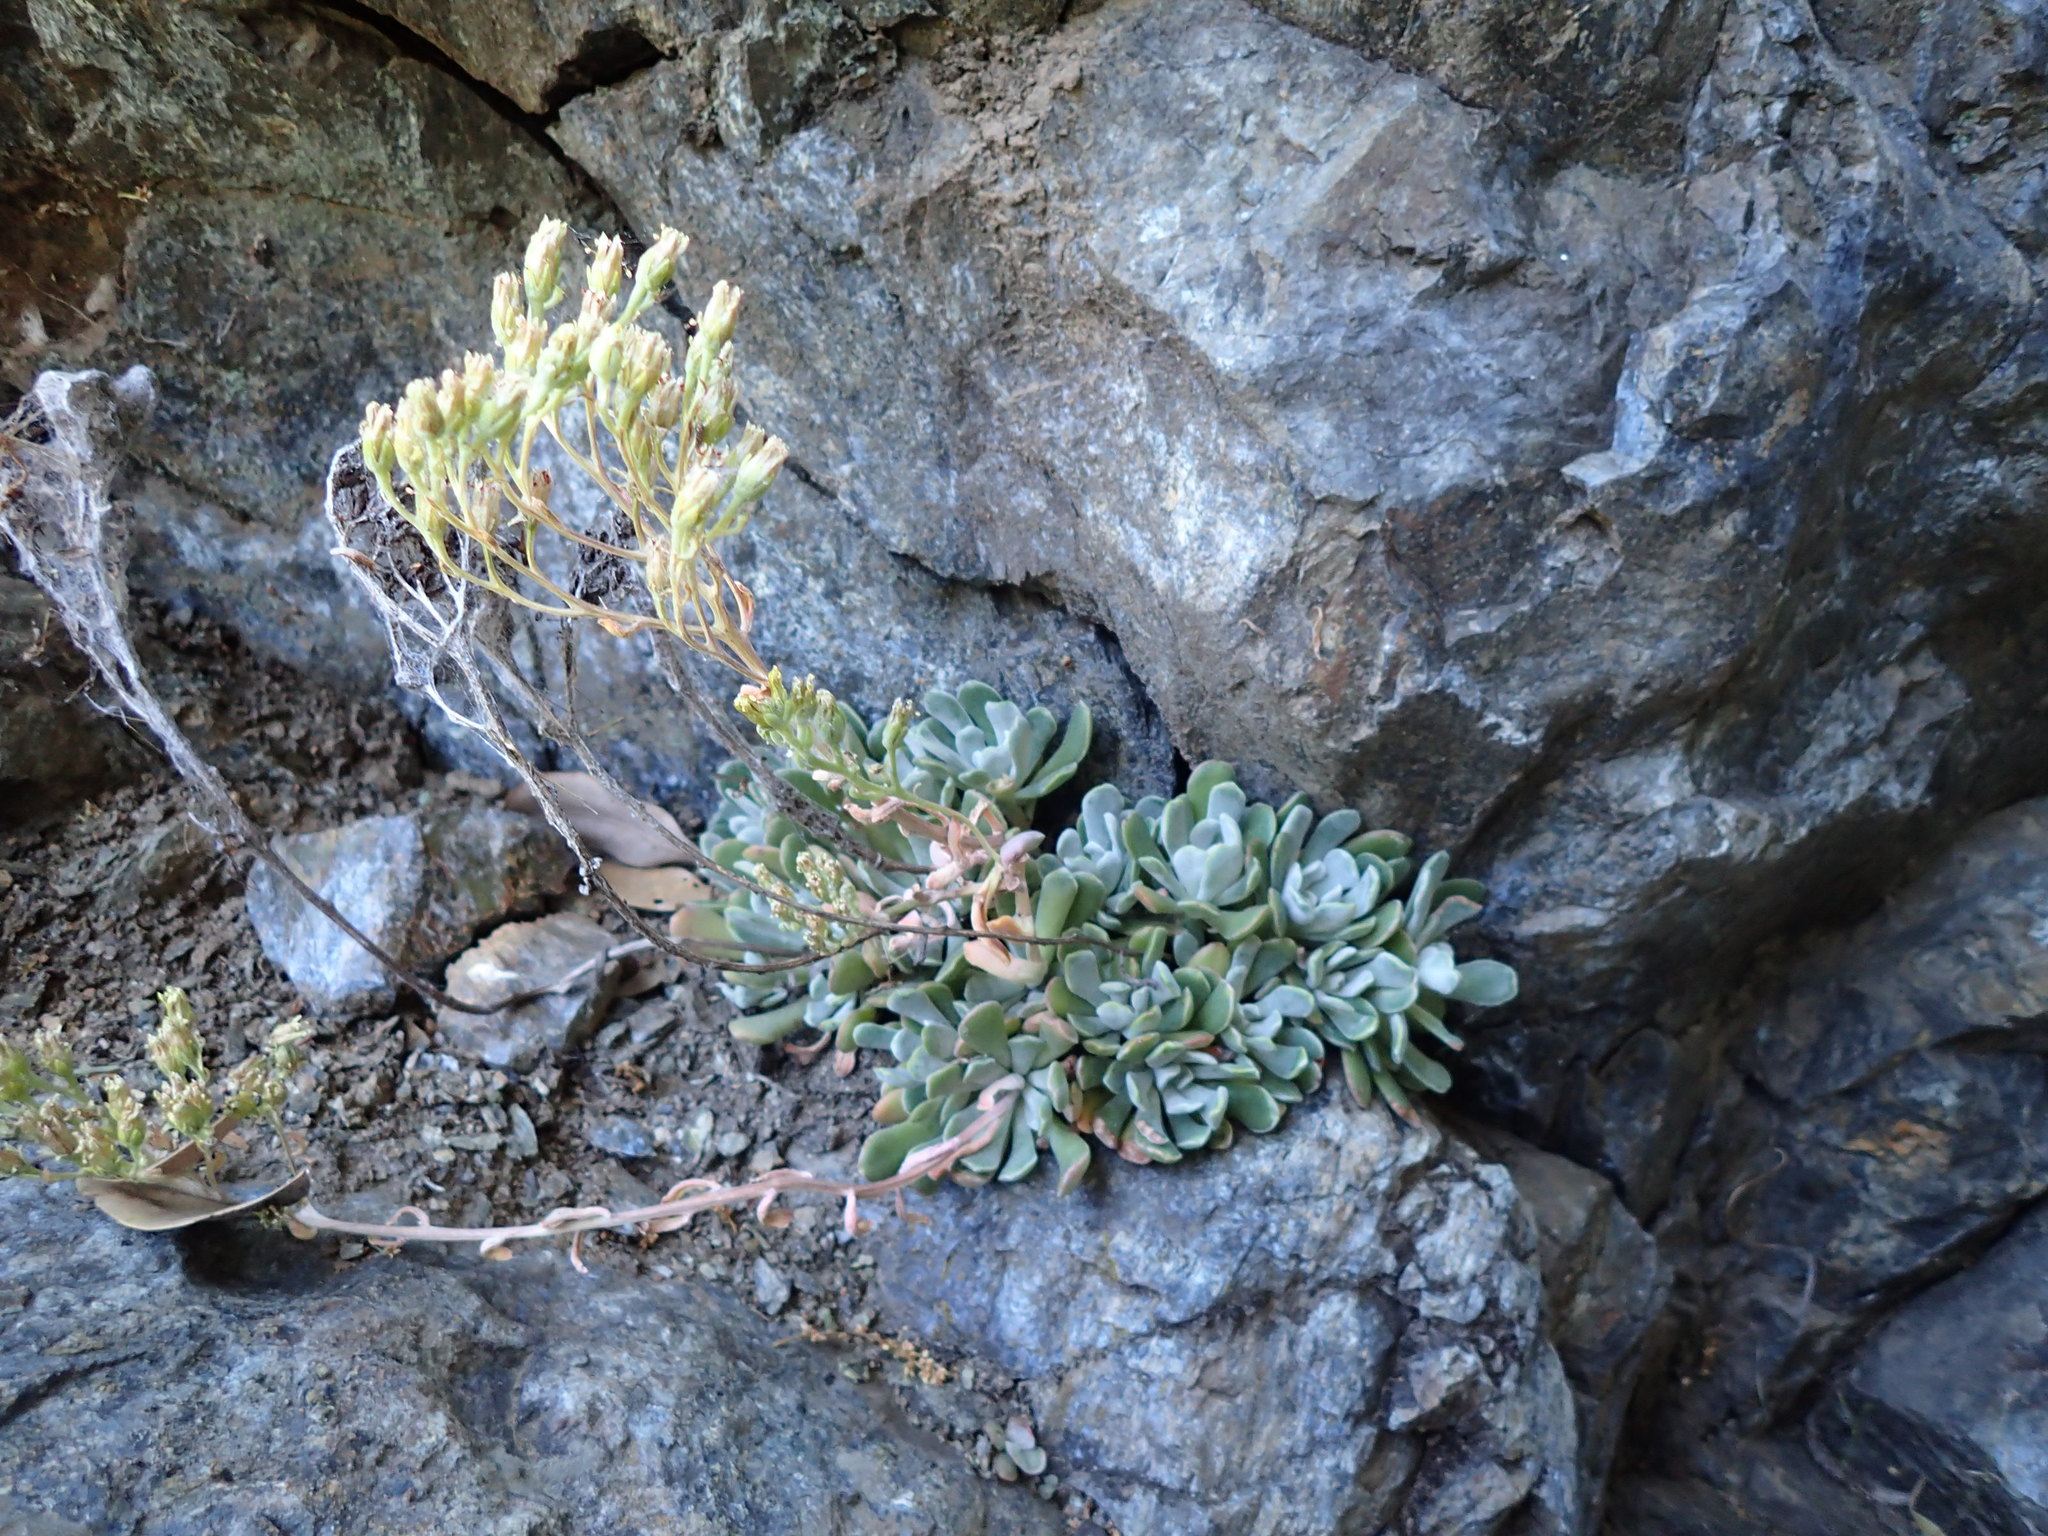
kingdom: Plantae
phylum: Tracheophyta
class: Magnoliopsida
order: Saxifragales
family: Crassulaceae
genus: Sedum
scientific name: Sedum albomarginatum
